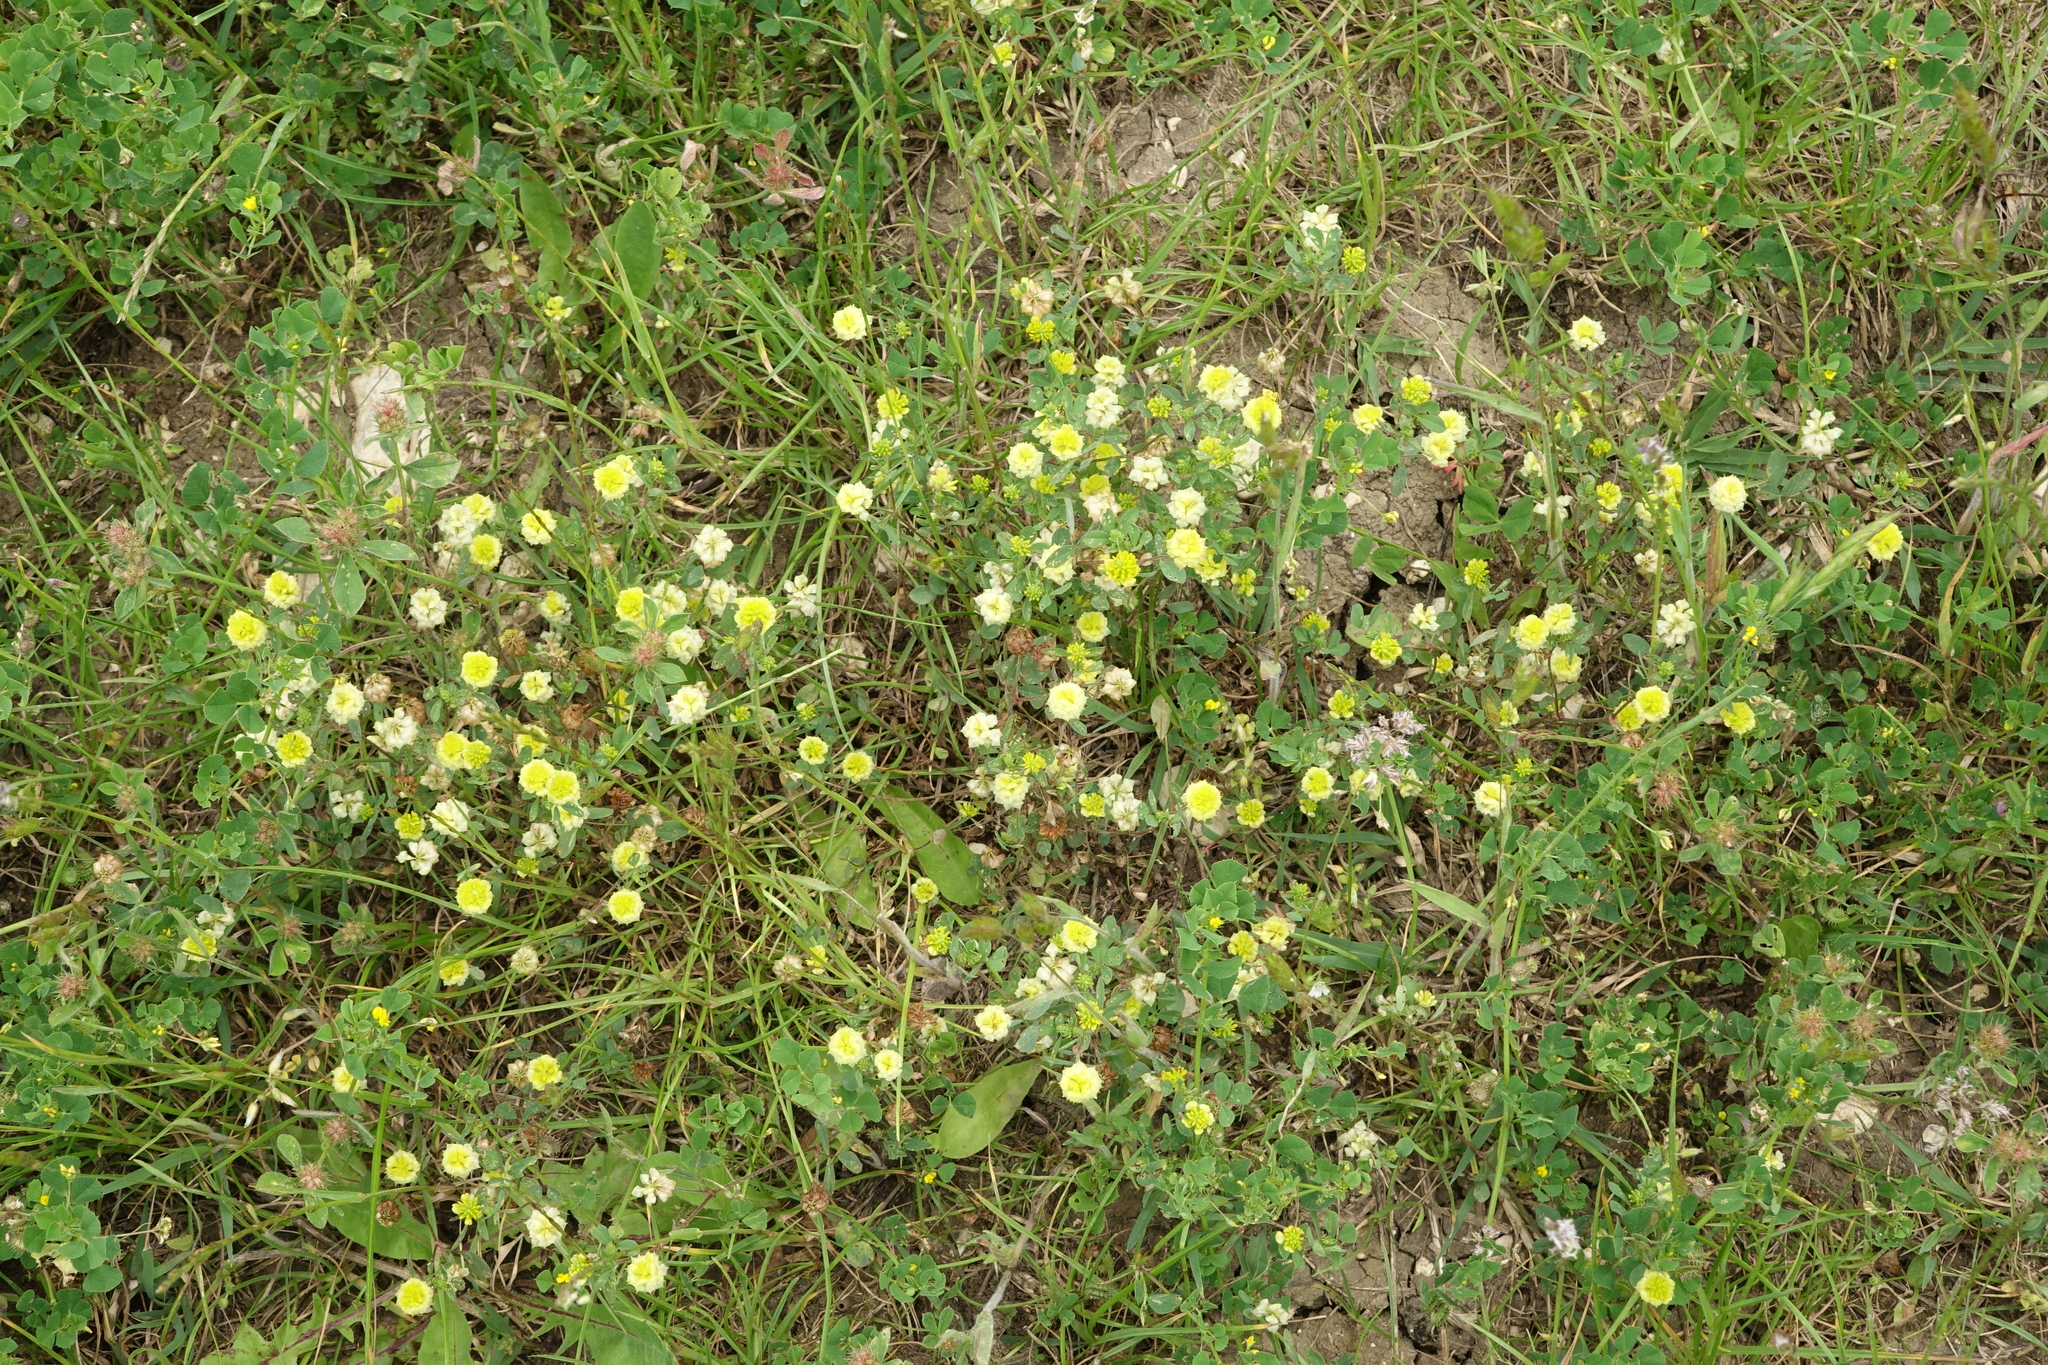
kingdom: Plantae
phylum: Tracheophyta
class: Magnoliopsida
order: Fabales
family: Fabaceae
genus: Trifolium
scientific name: Trifolium campestre
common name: Field clover
